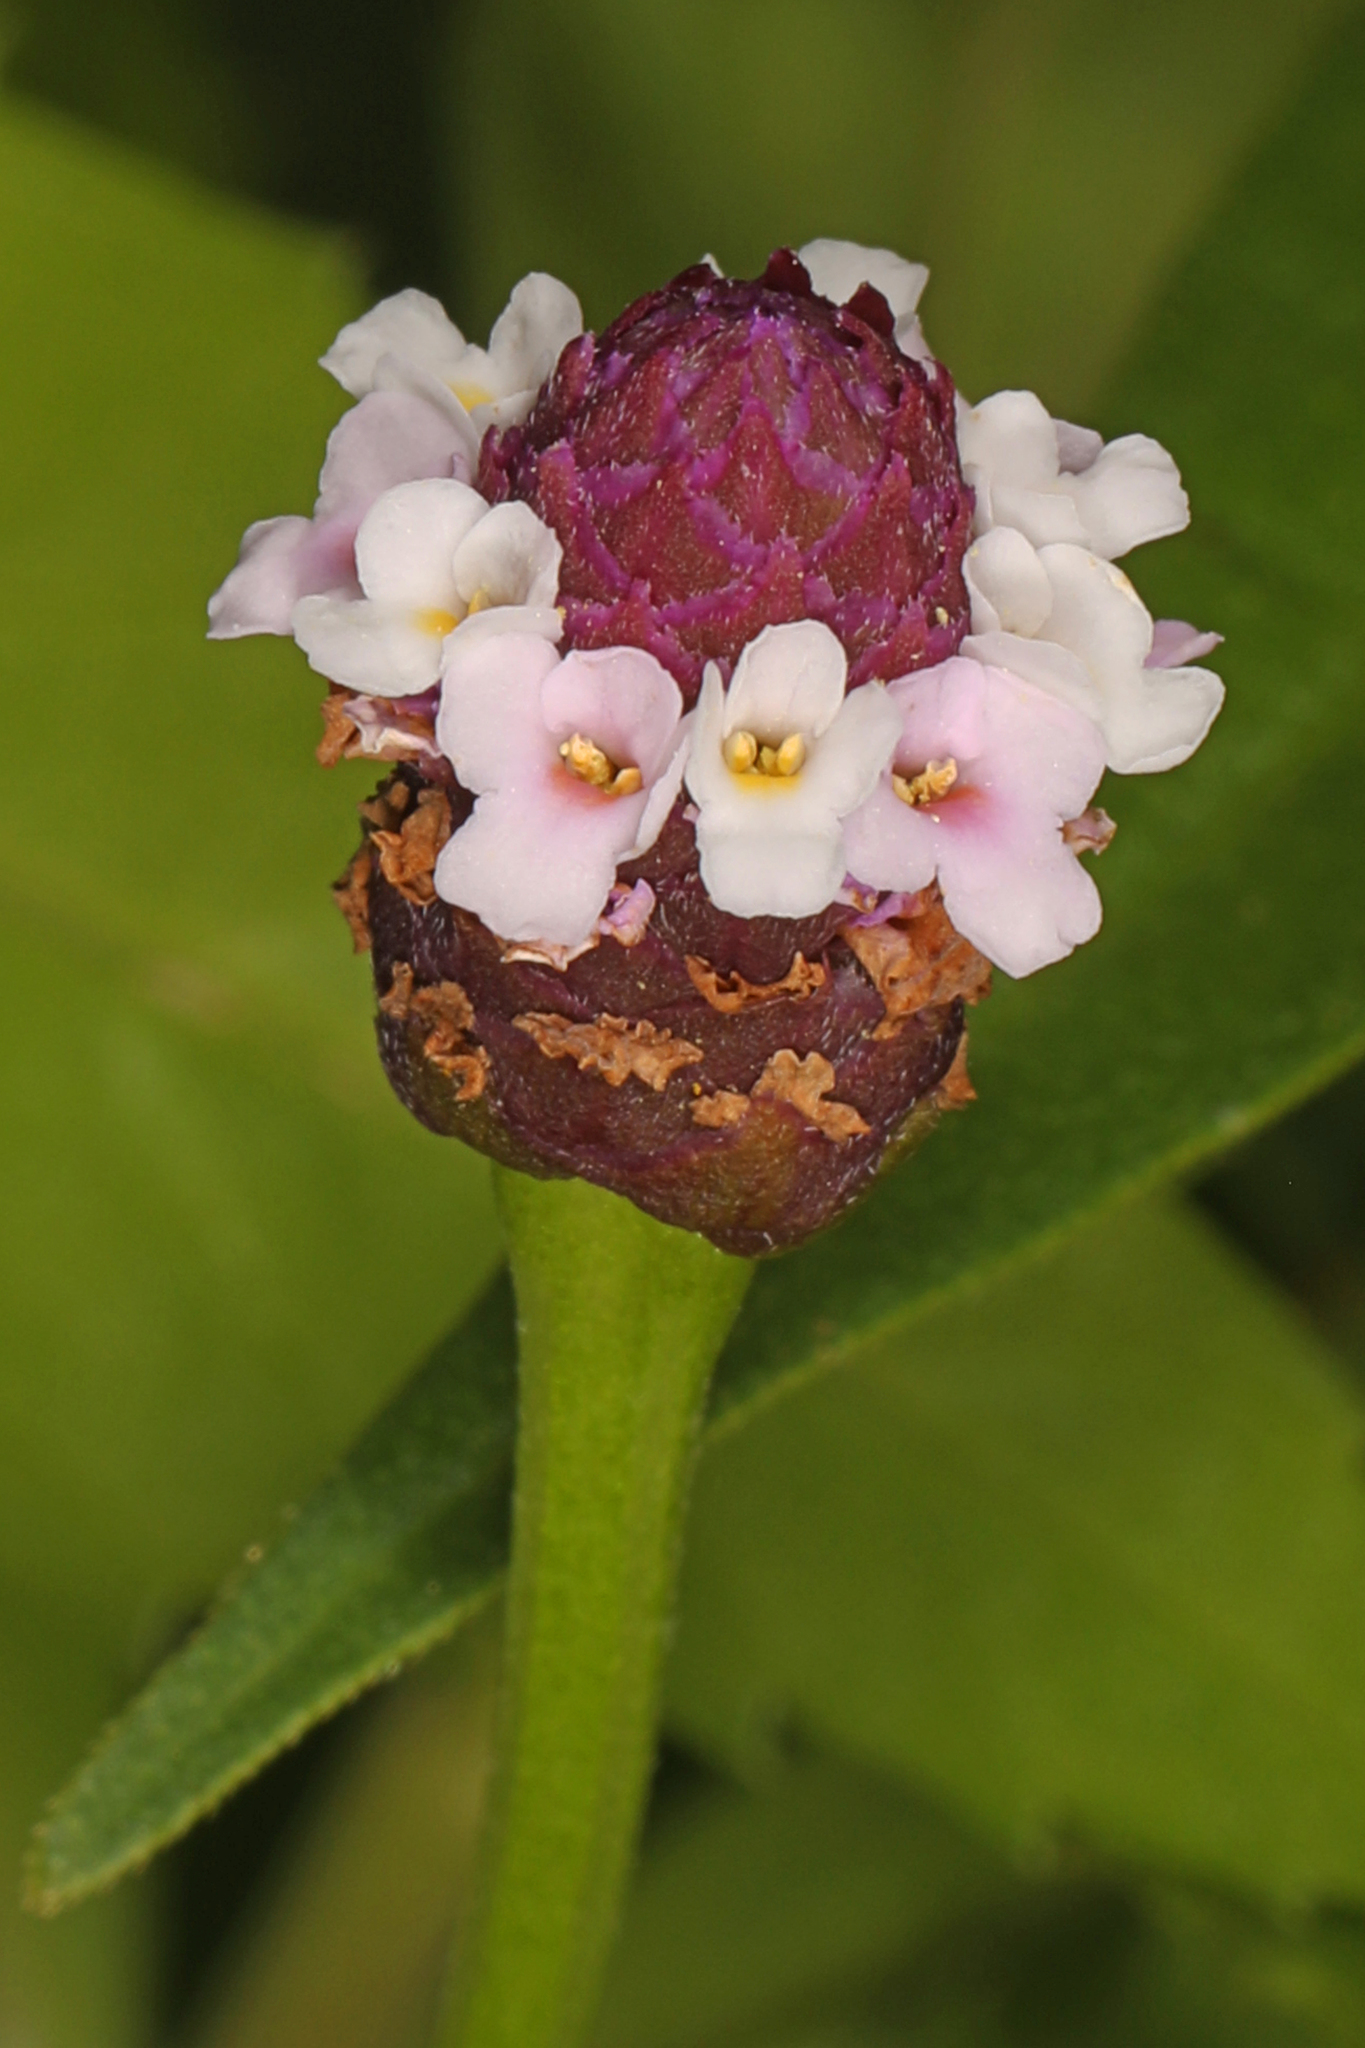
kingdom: Plantae
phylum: Tracheophyta
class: Magnoliopsida
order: Lamiales
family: Verbenaceae
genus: Phyla
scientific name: Phyla lanceolata
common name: Northern fogfruit
